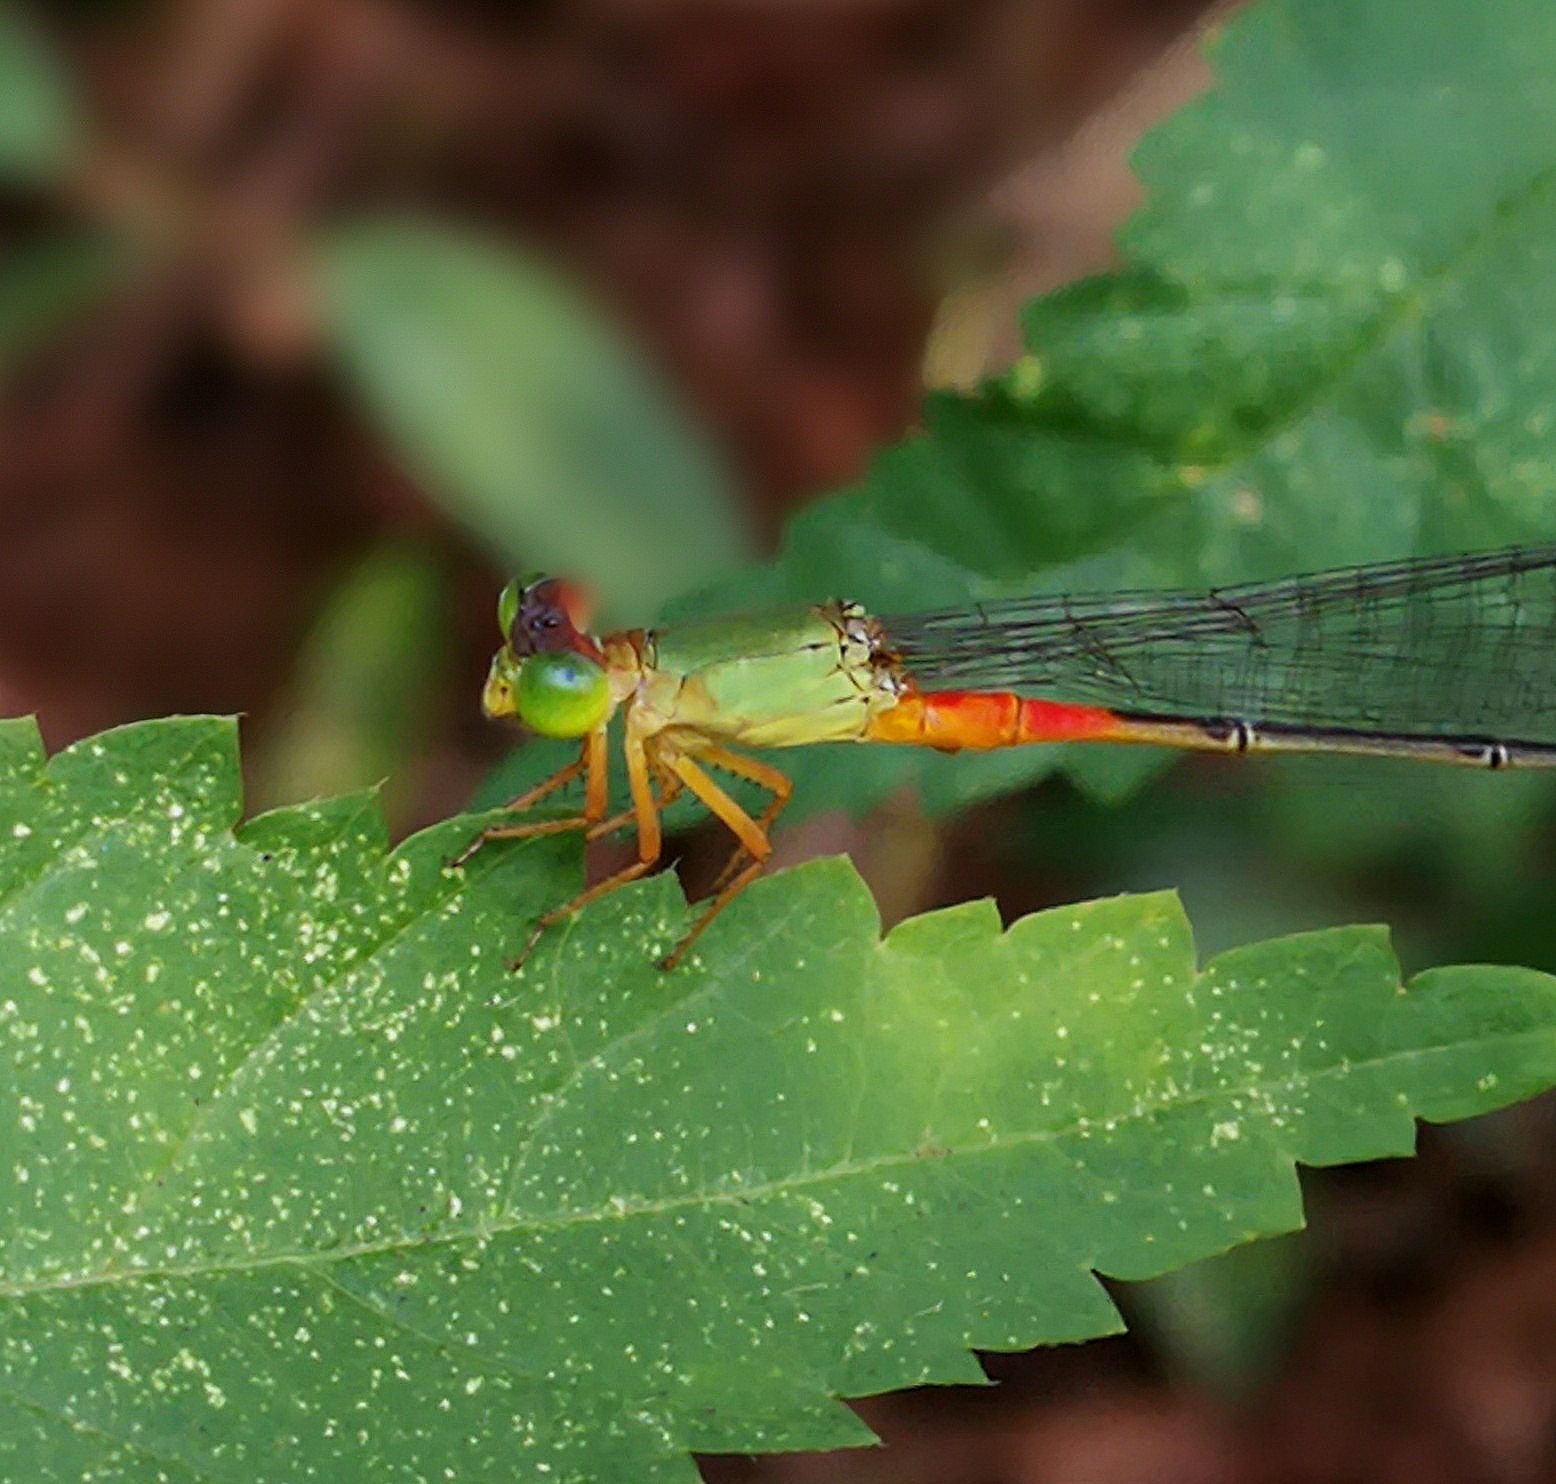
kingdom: Animalia
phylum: Arthropoda
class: Insecta
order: Odonata
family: Coenagrionidae
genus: Ceriagrion
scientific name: Ceriagrion cerinorubellum
